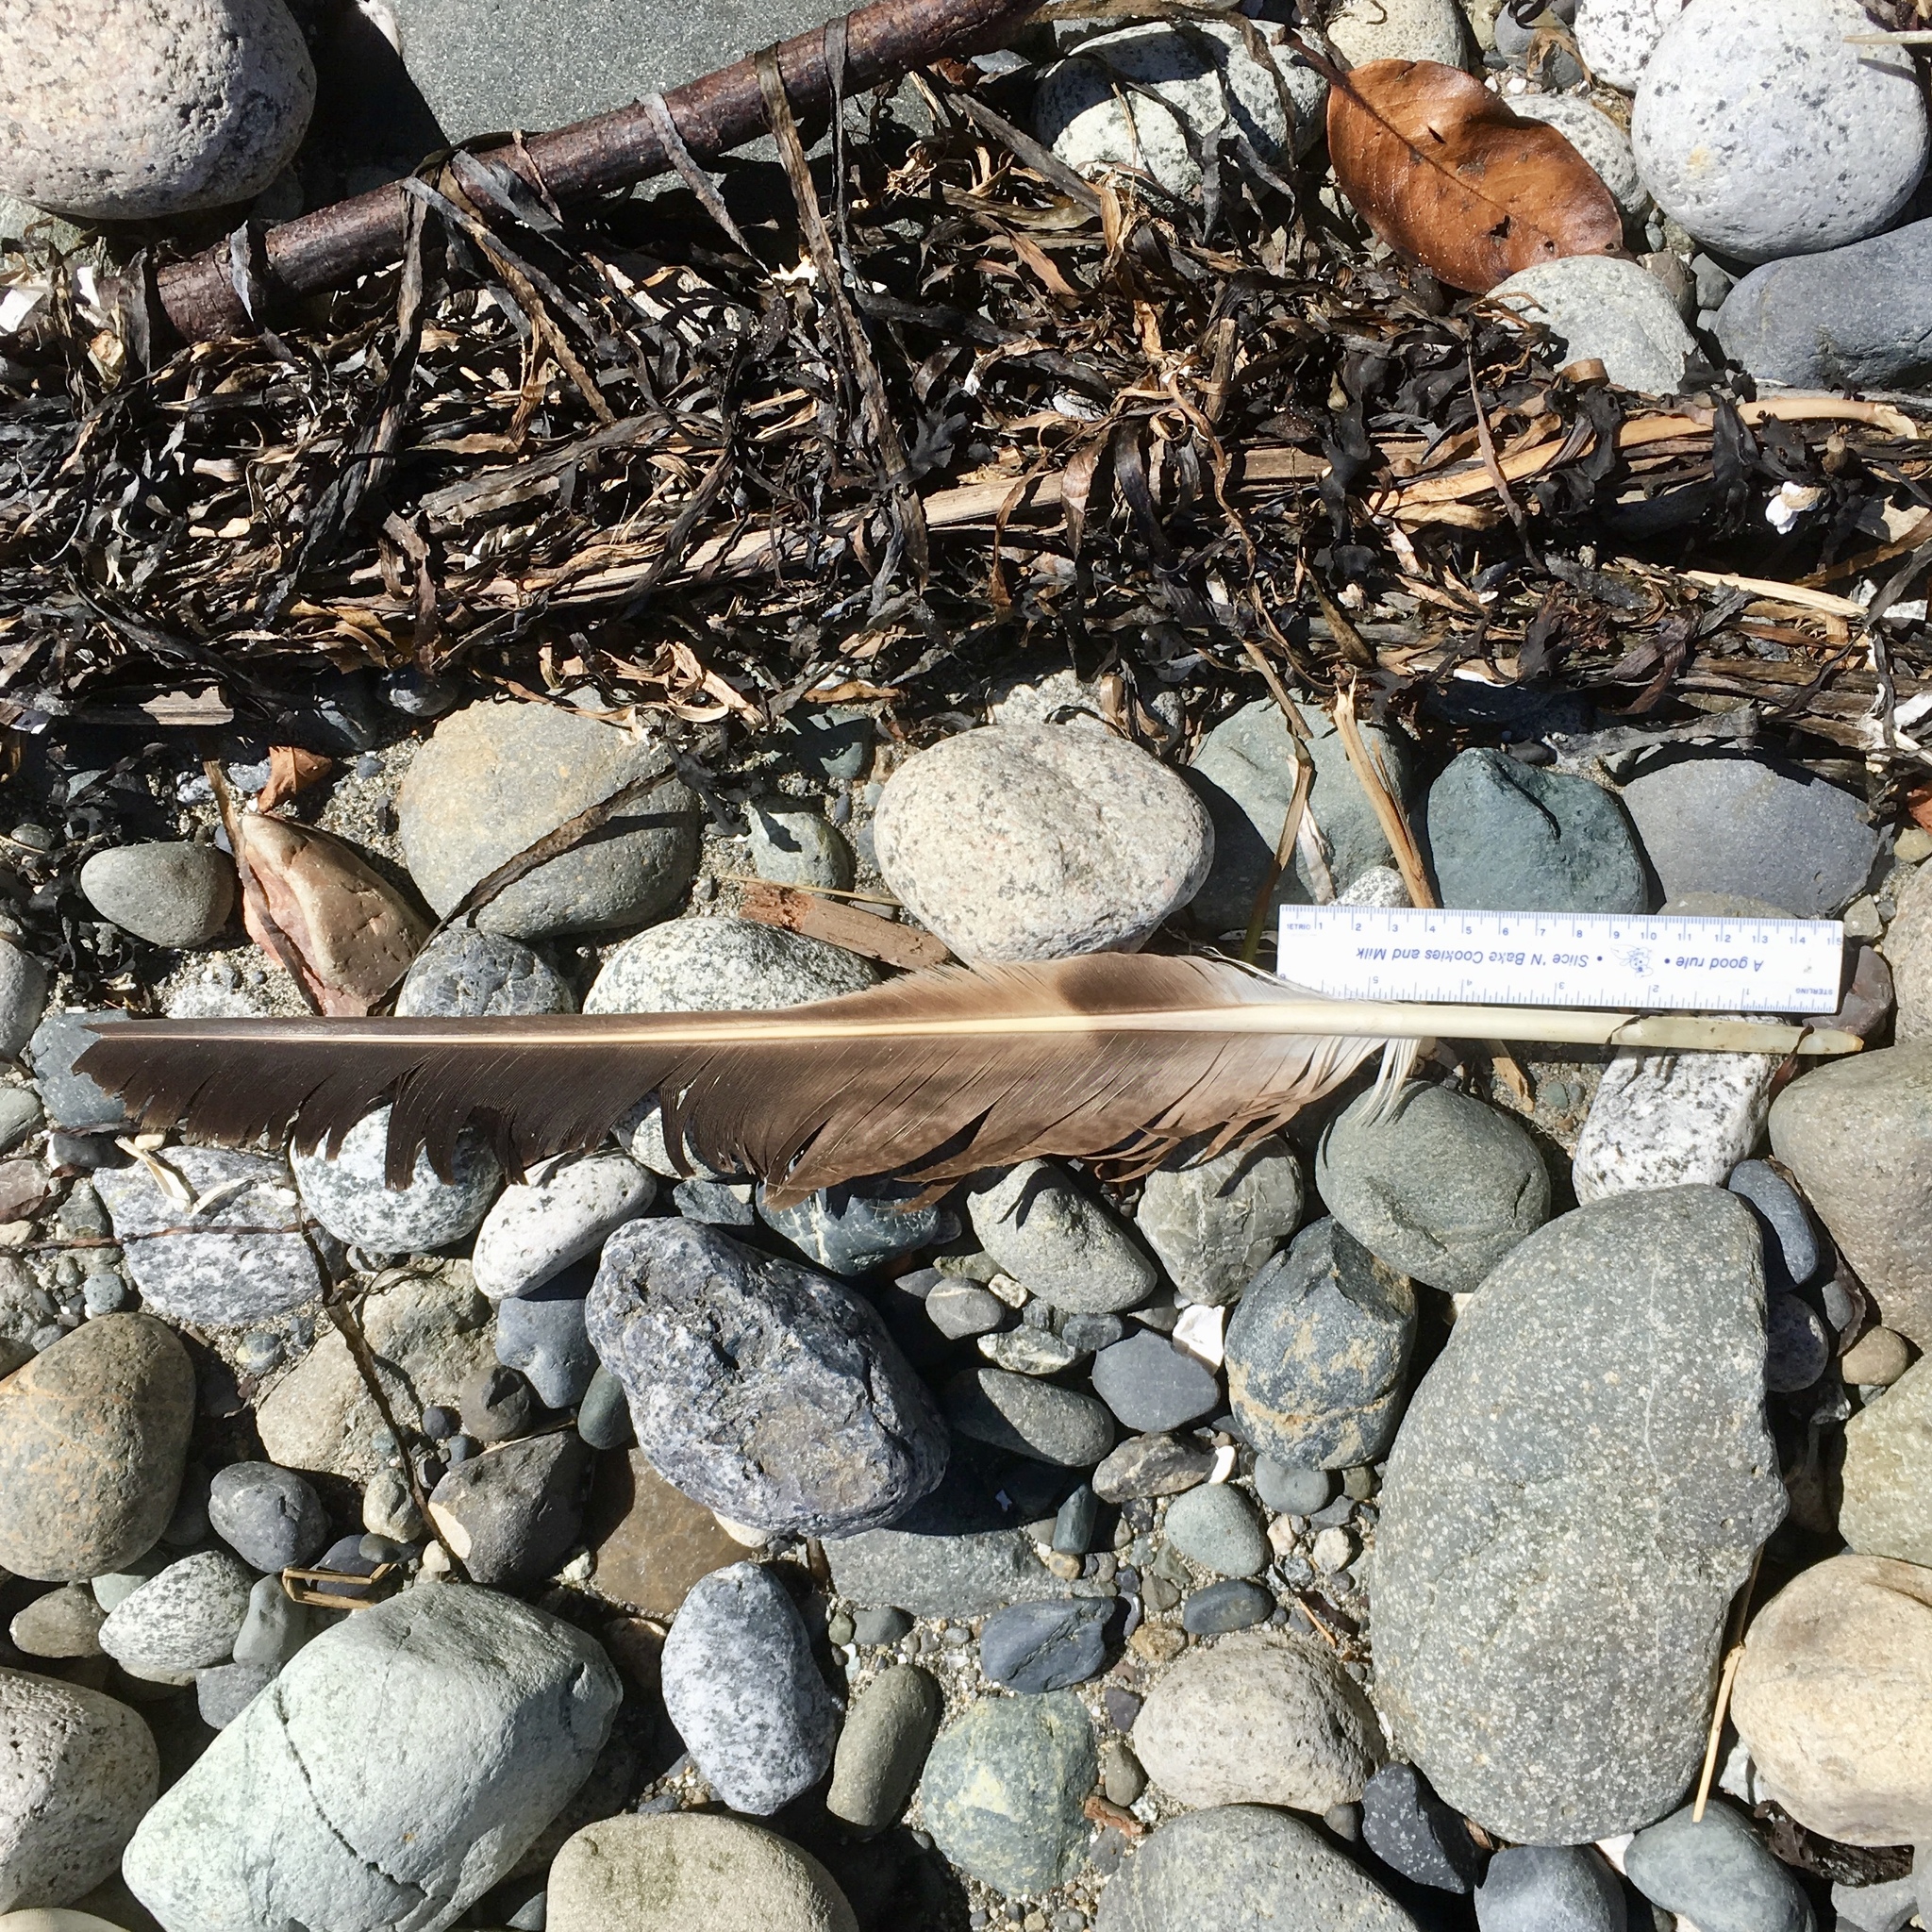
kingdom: Animalia
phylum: Chordata
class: Aves
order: Accipitriformes
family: Accipitridae
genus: Haliaeetus
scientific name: Haliaeetus leucocephalus
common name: Bald eagle
